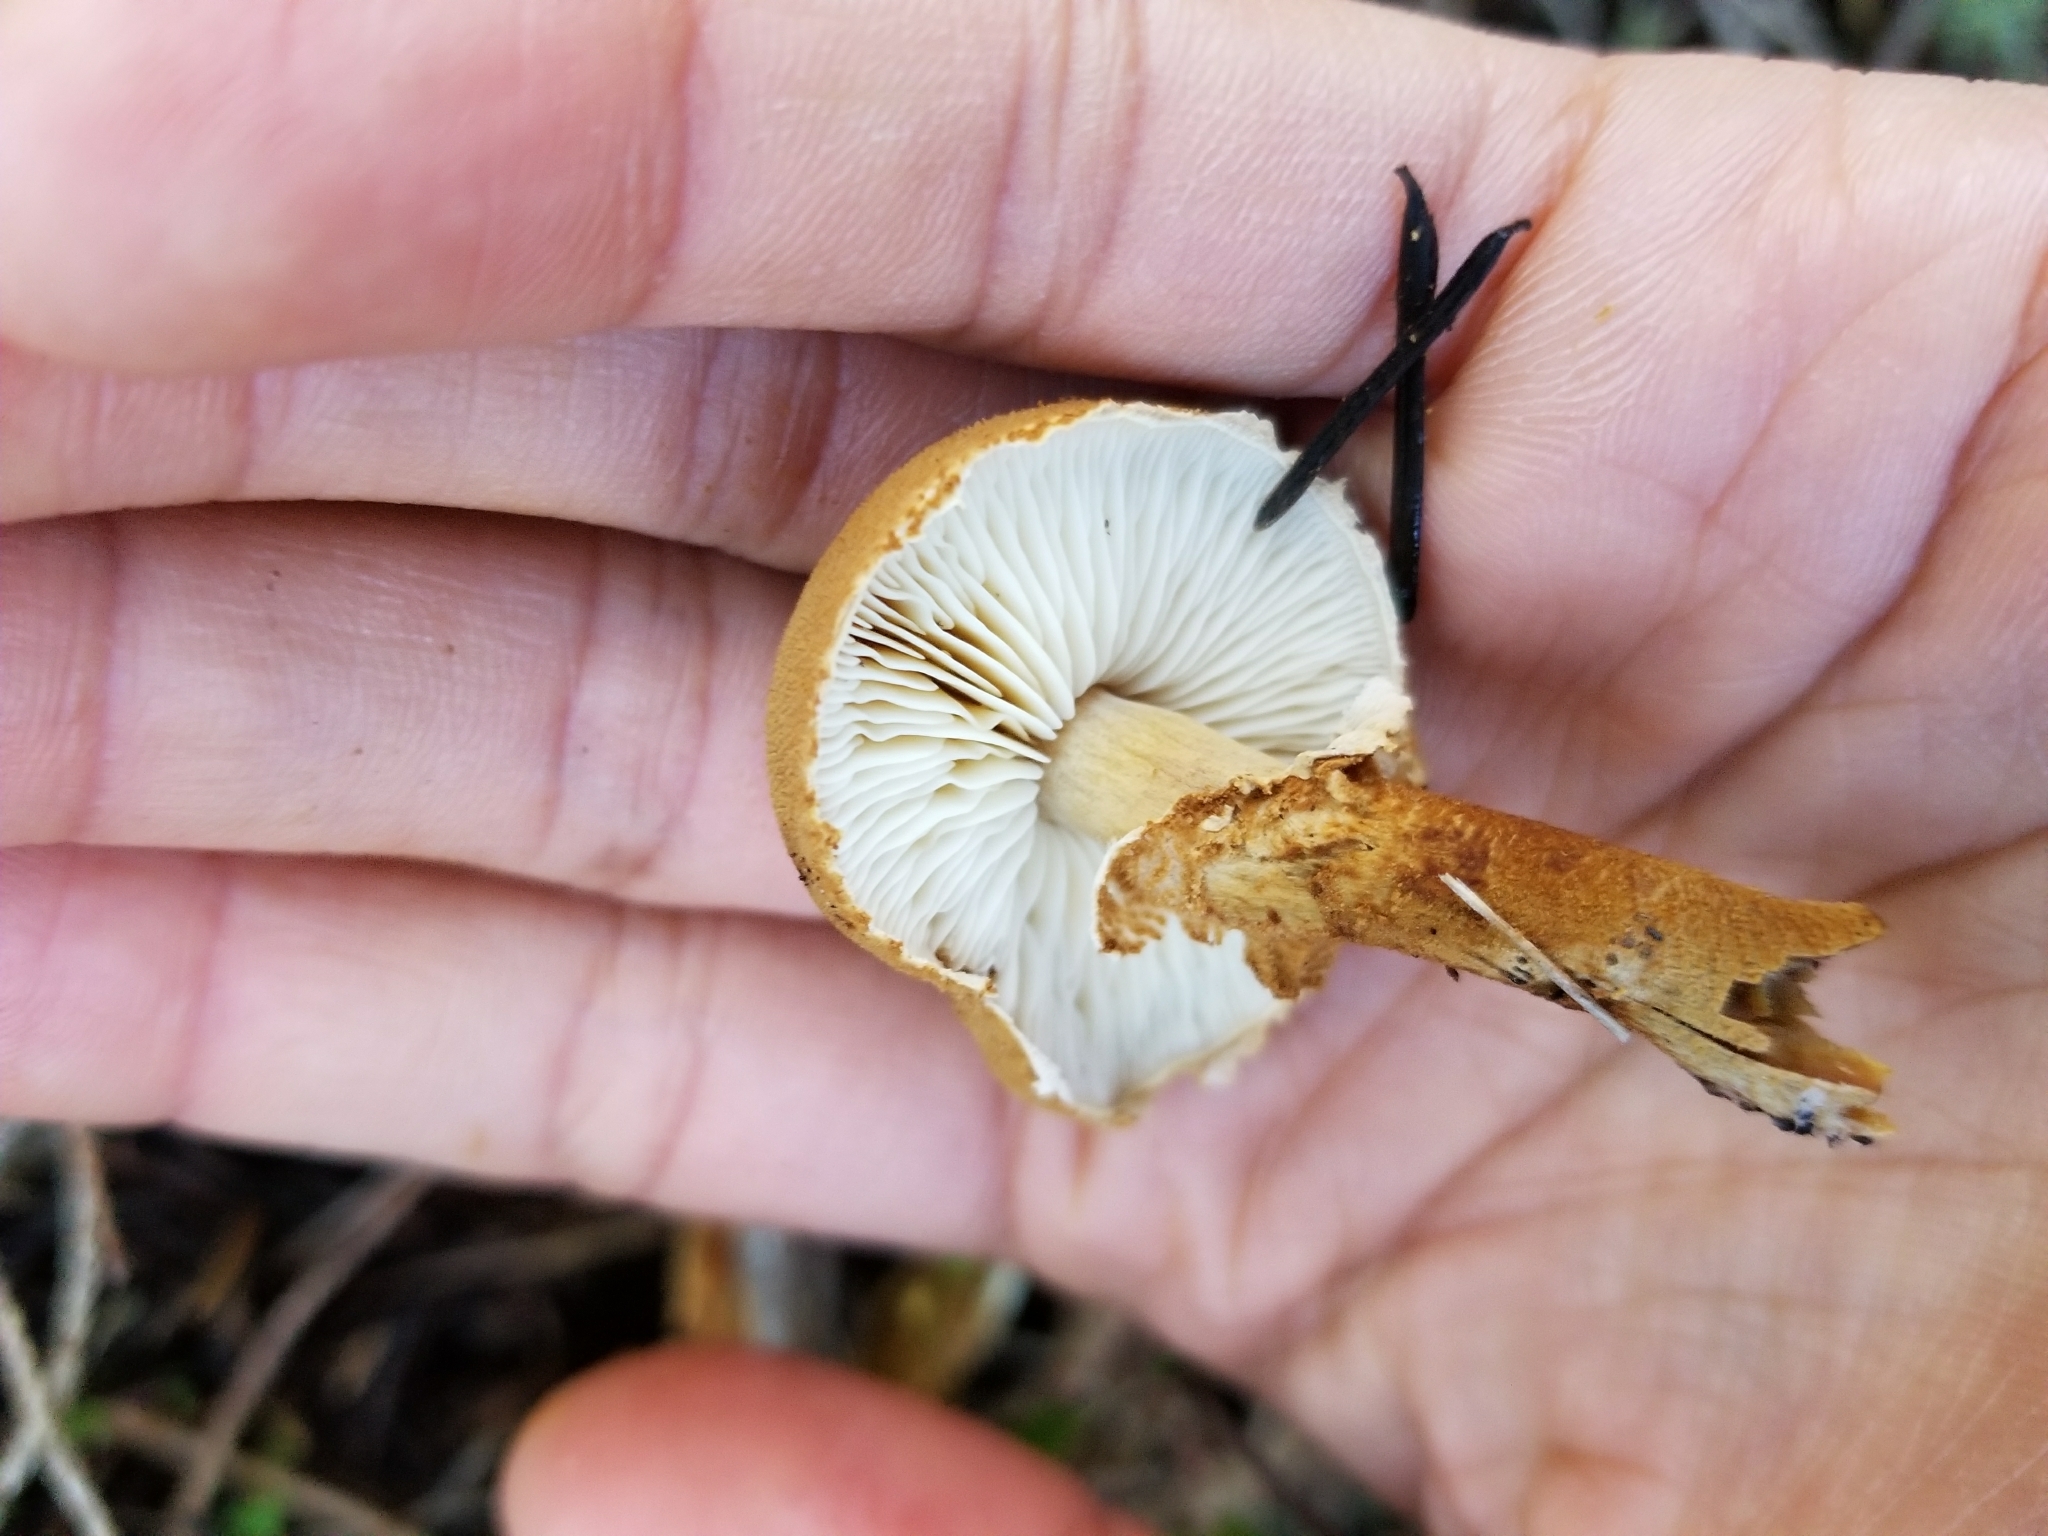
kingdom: Fungi
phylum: Basidiomycota
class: Agaricomycetes
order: Agaricales
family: Tricholomataceae
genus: Cystoderma
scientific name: Cystoderma fallax
